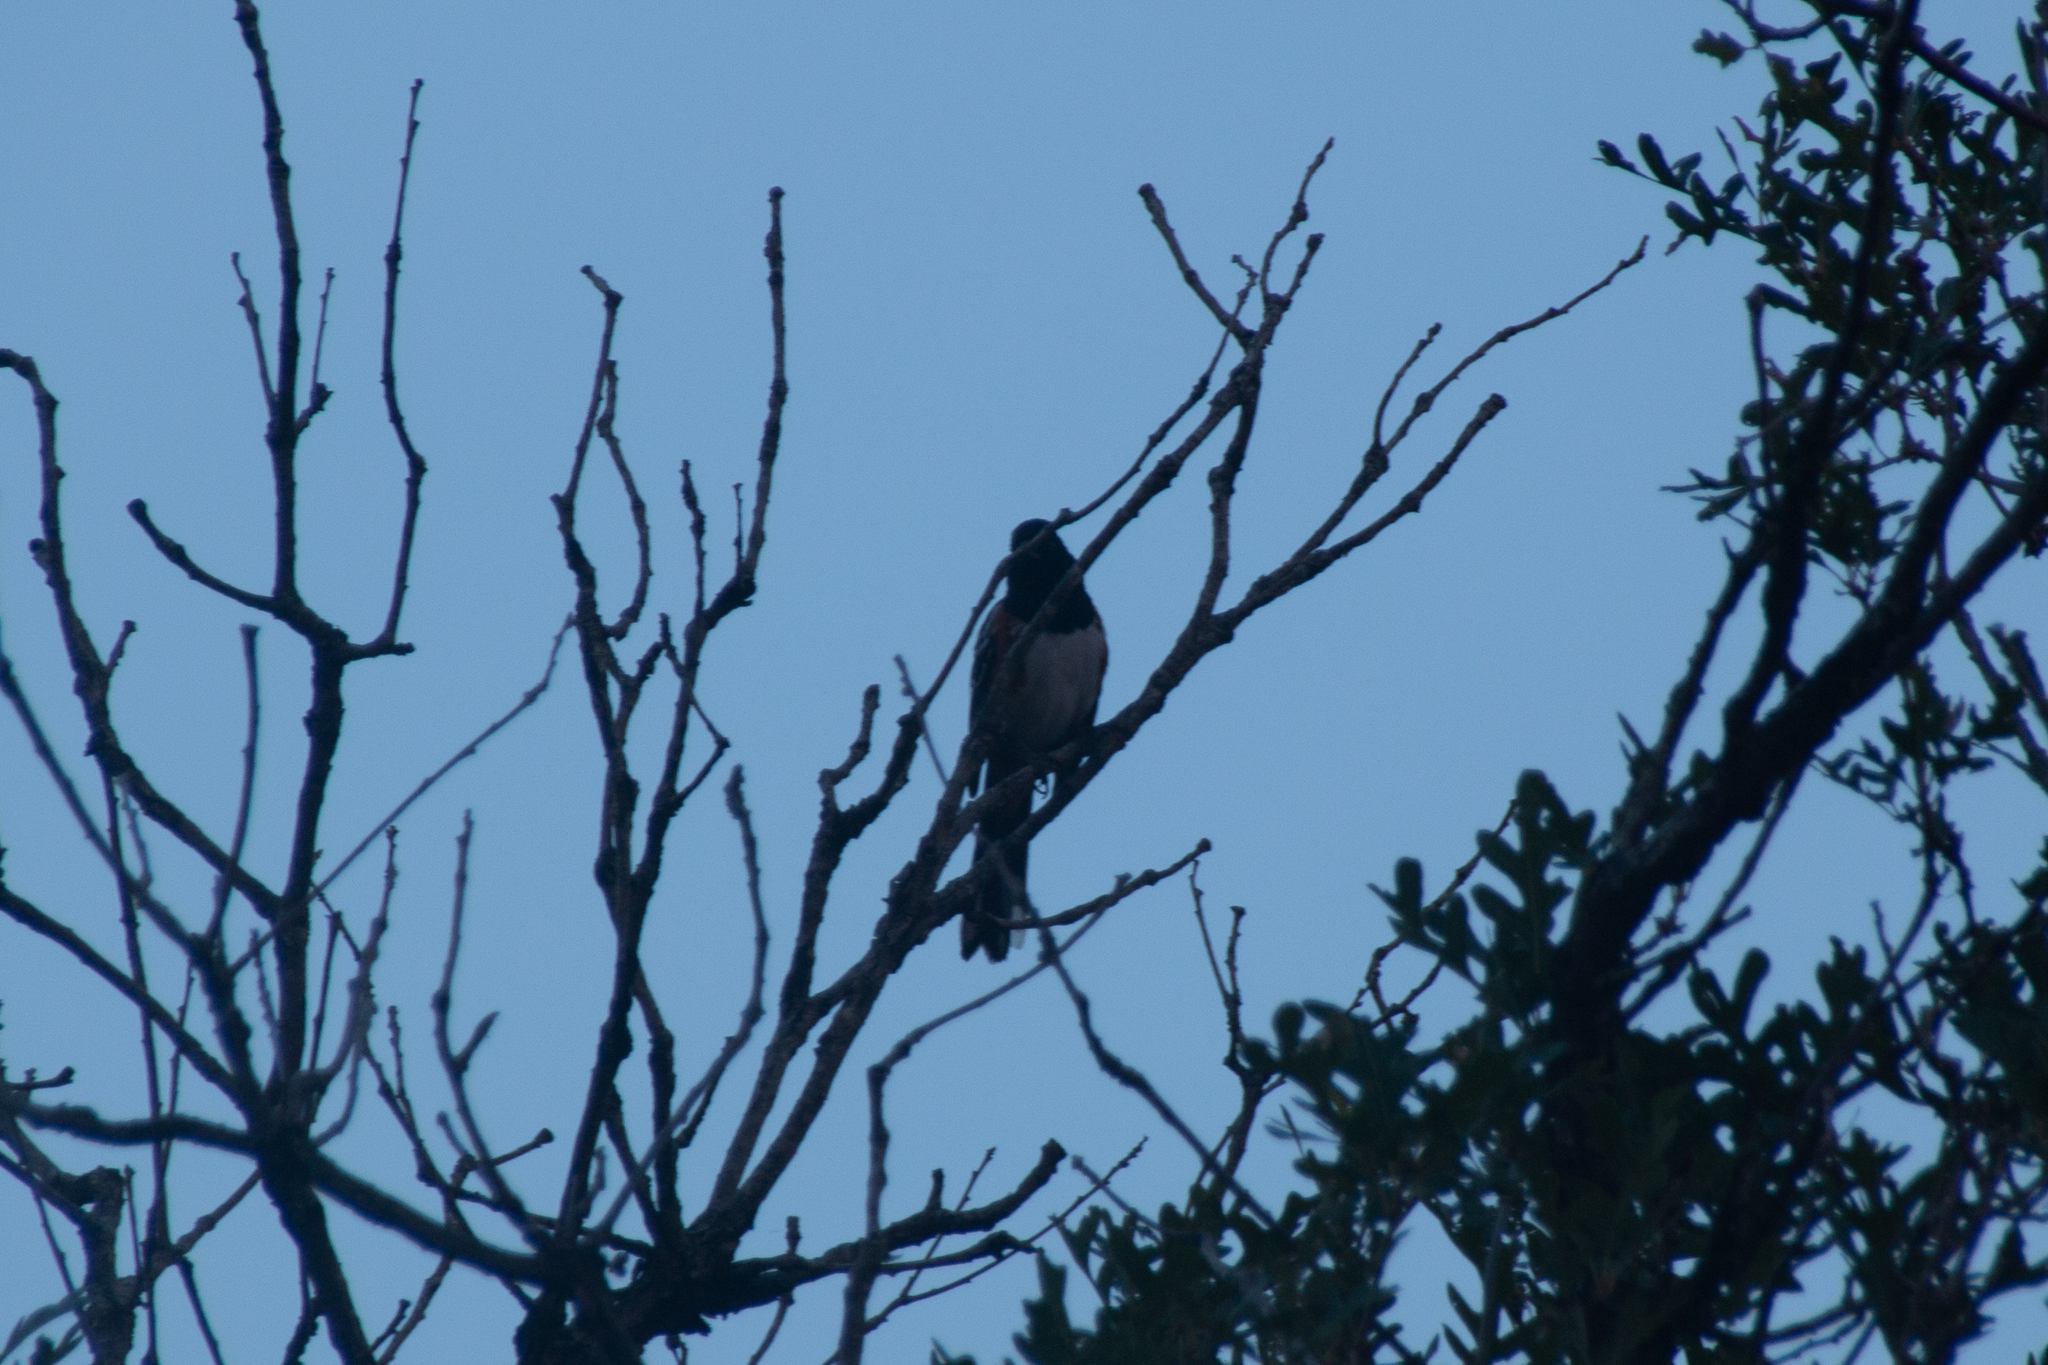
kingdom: Animalia
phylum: Chordata
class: Aves
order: Passeriformes
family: Passerellidae
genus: Pipilo
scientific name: Pipilo maculatus
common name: Spotted towhee
